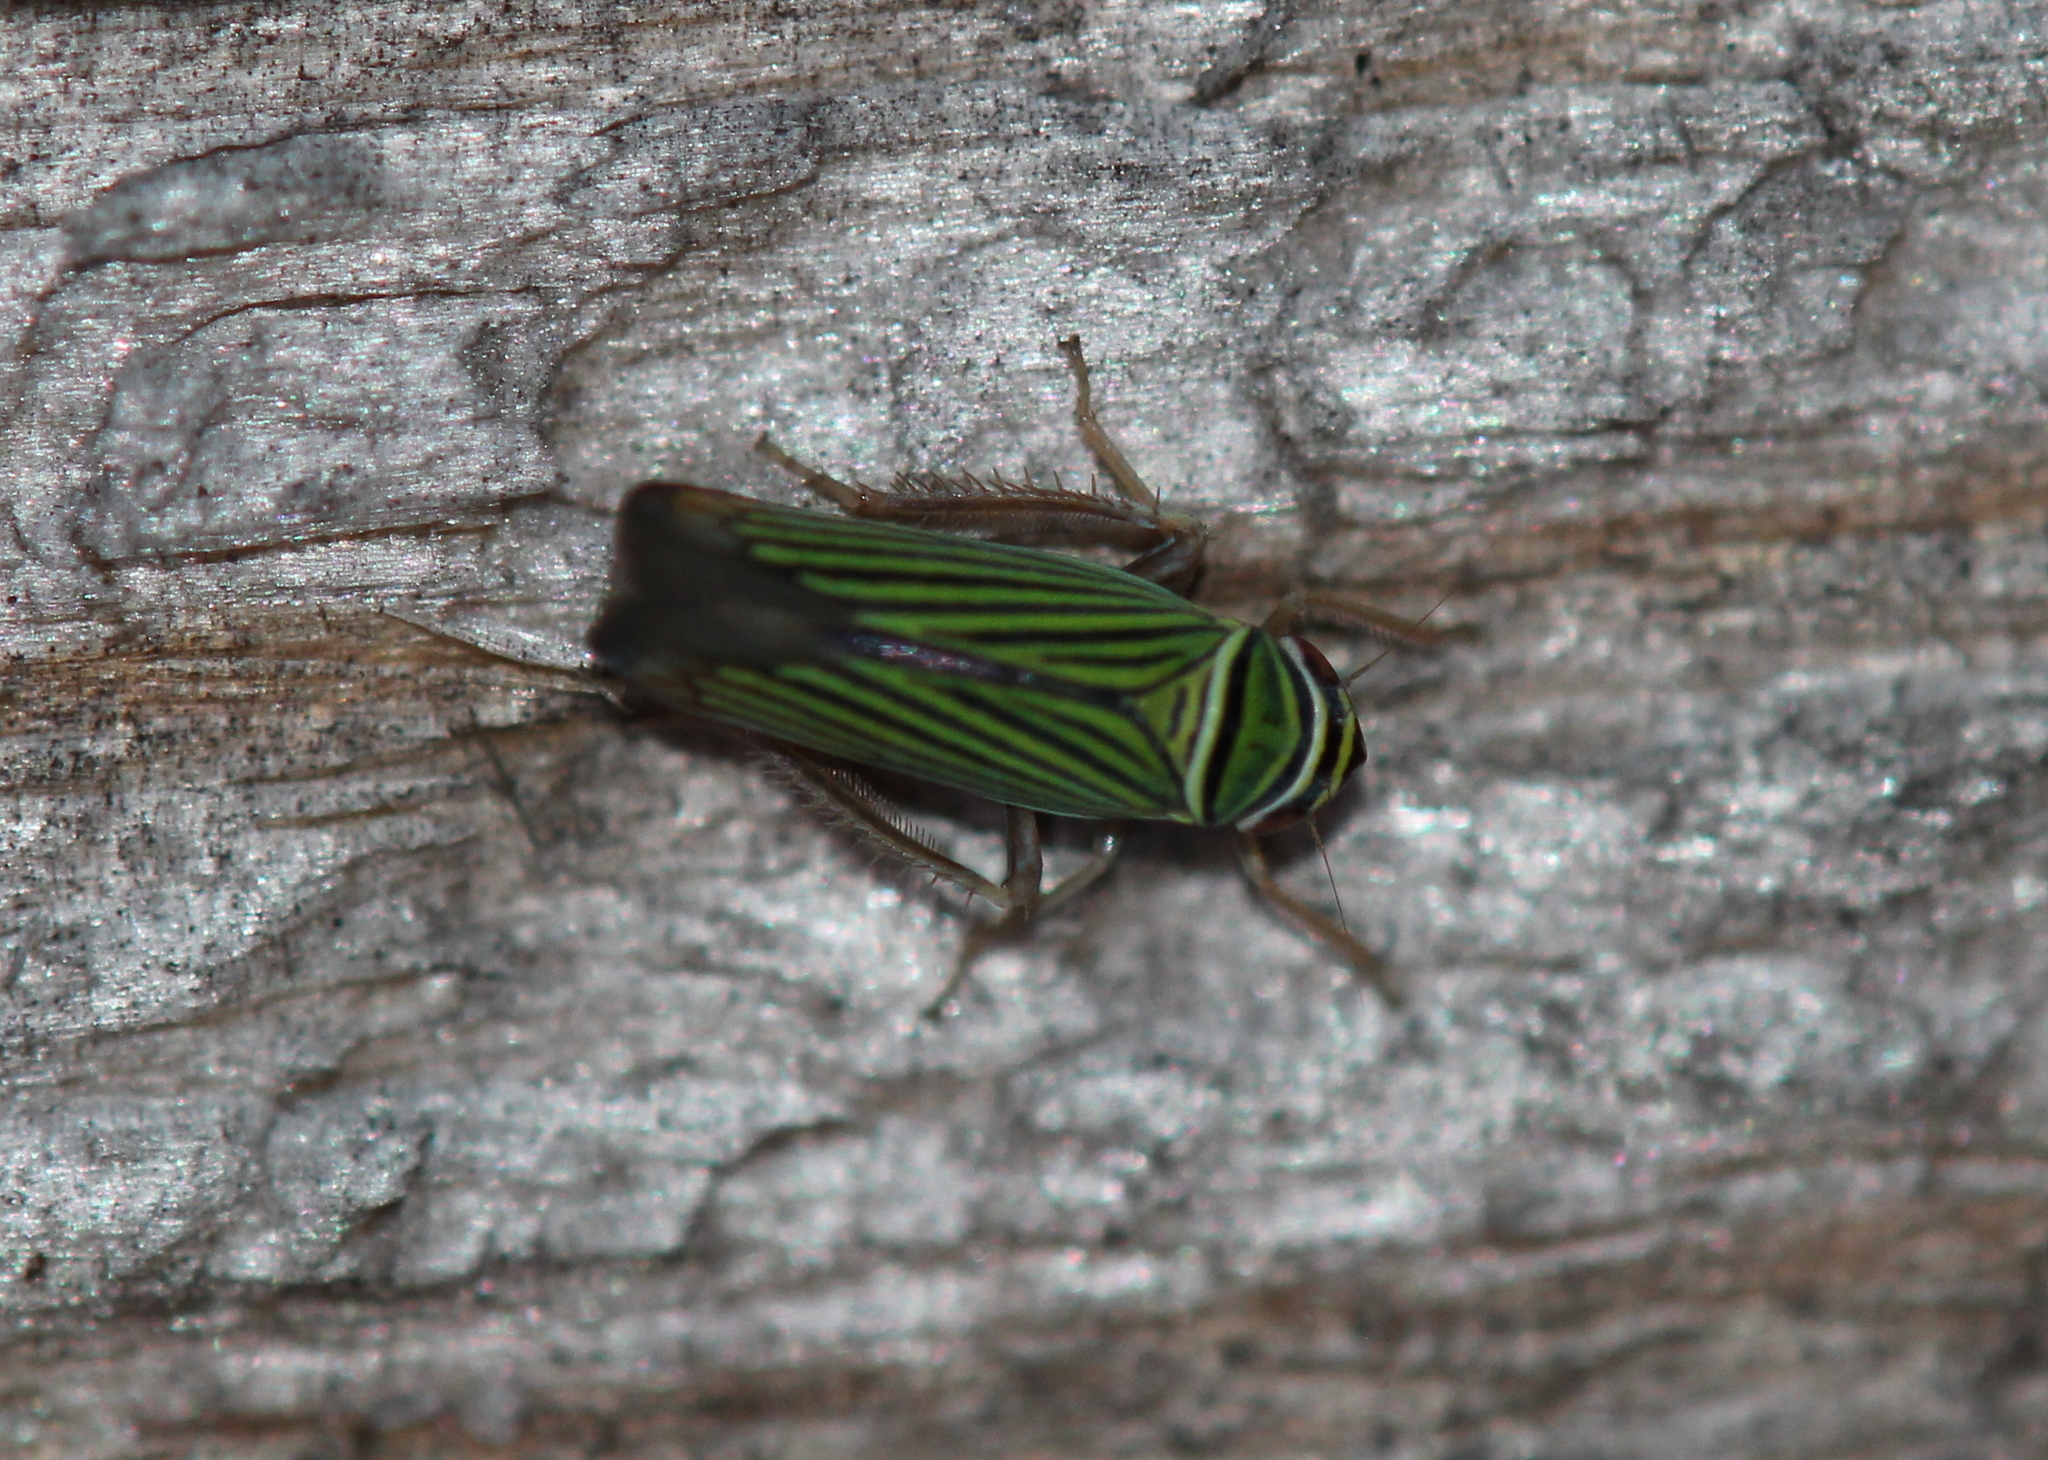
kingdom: Animalia
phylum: Arthropoda
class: Insecta
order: Hemiptera
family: Cicadellidae
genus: Tylozygus
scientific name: Tylozygus bifidus
